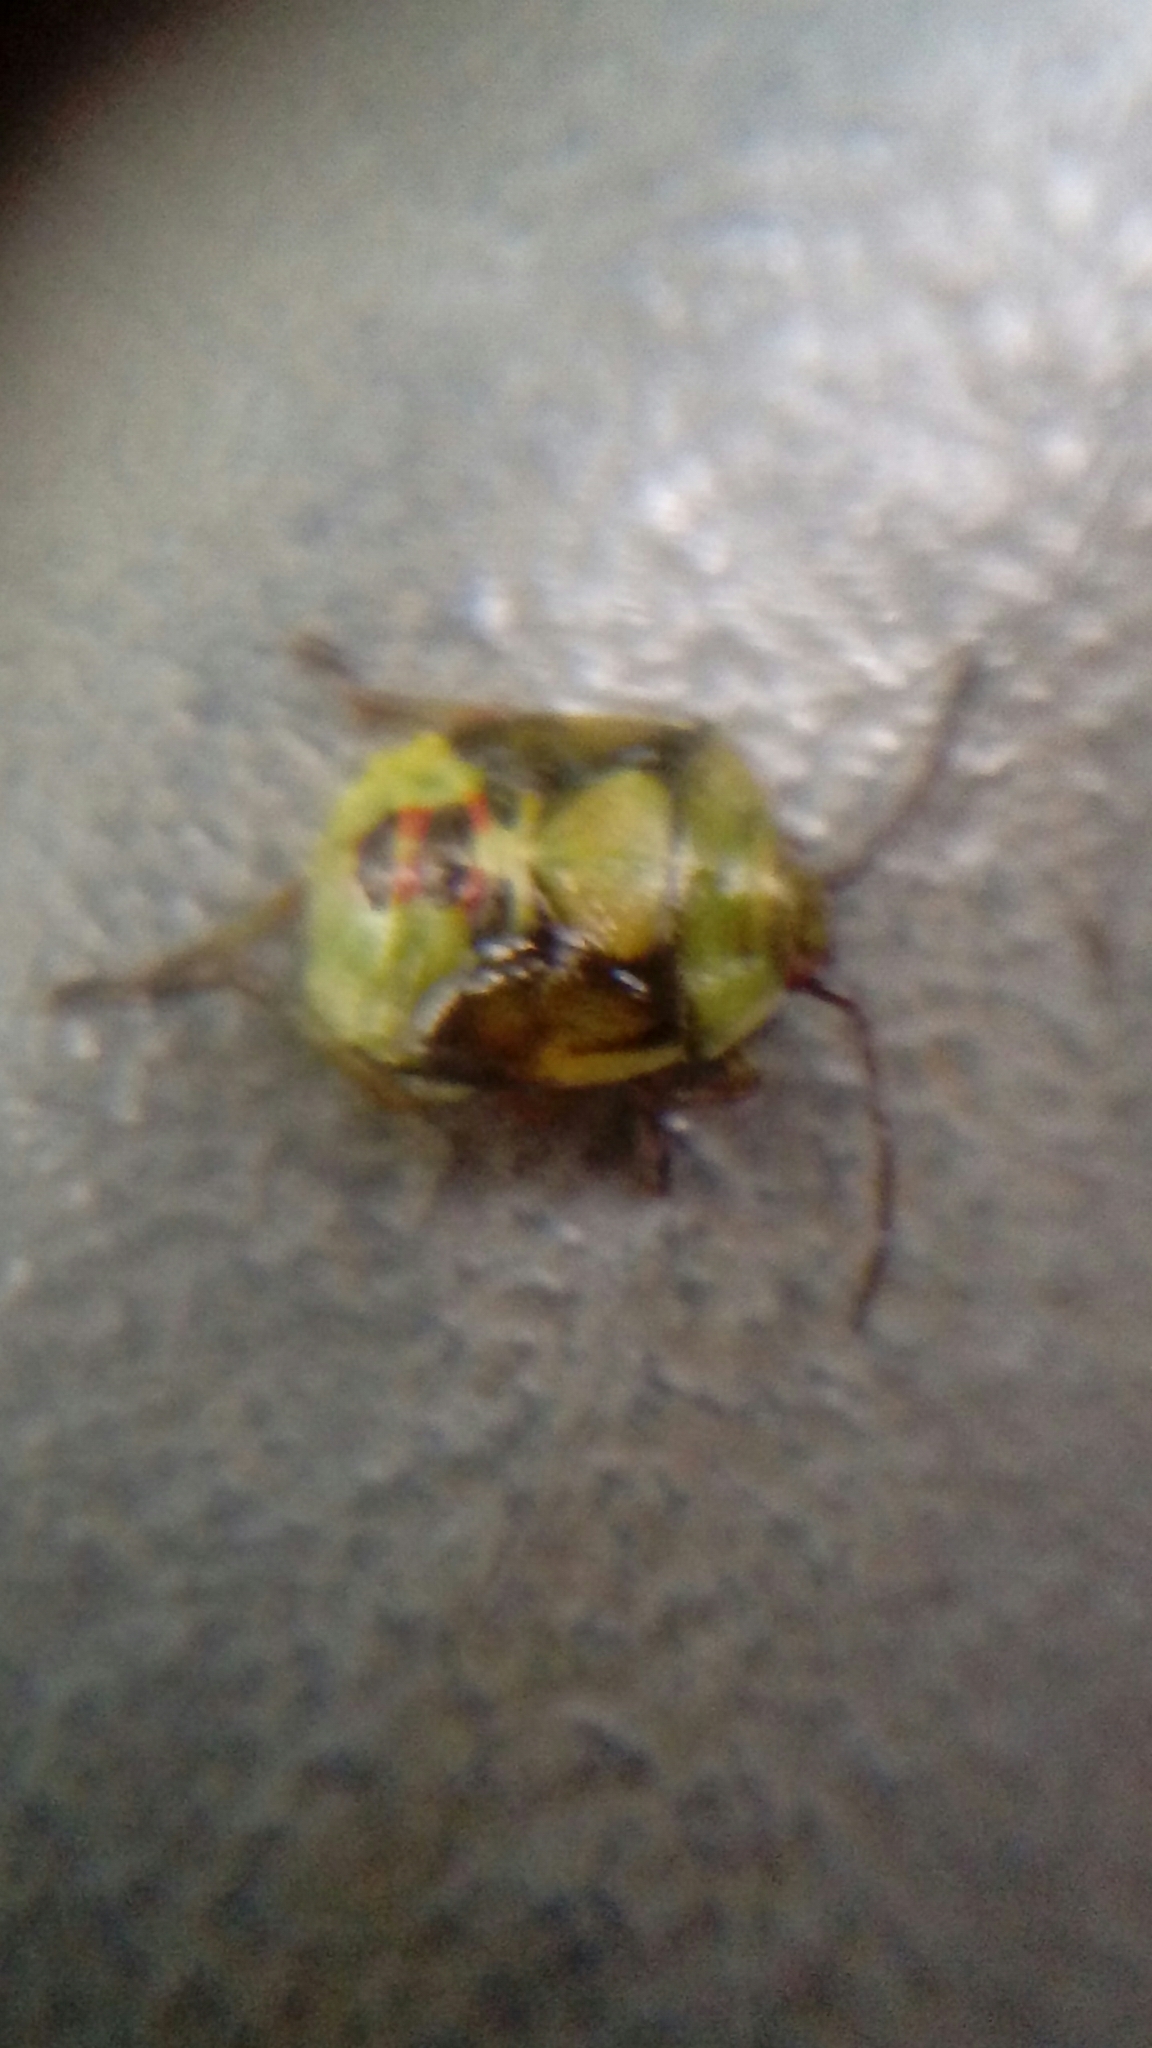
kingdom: Animalia
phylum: Arthropoda
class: Insecta
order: Hemiptera
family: Acanthosomatidae
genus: Elasmostethus
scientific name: Elasmostethus interstinctus
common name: Birch shieldbug
